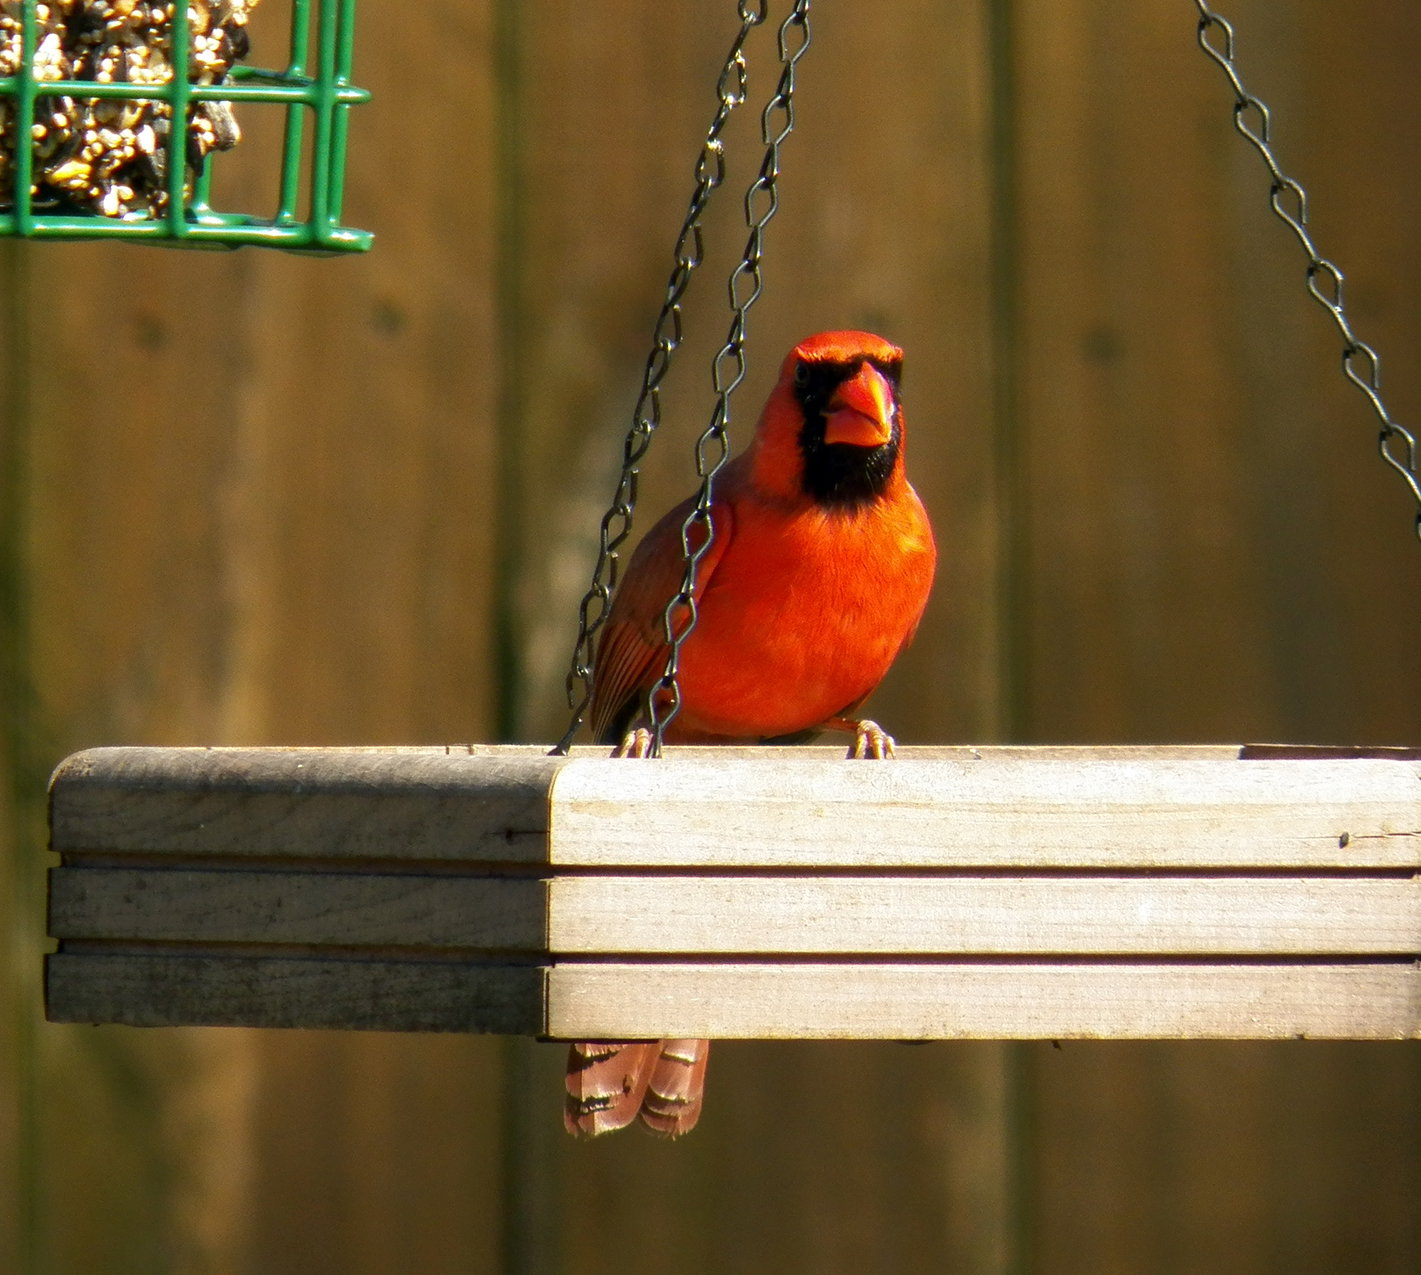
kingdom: Animalia
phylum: Chordata
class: Aves
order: Passeriformes
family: Cardinalidae
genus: Cardinalis
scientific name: Cardinalis cardinalis
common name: Northern cardinal
